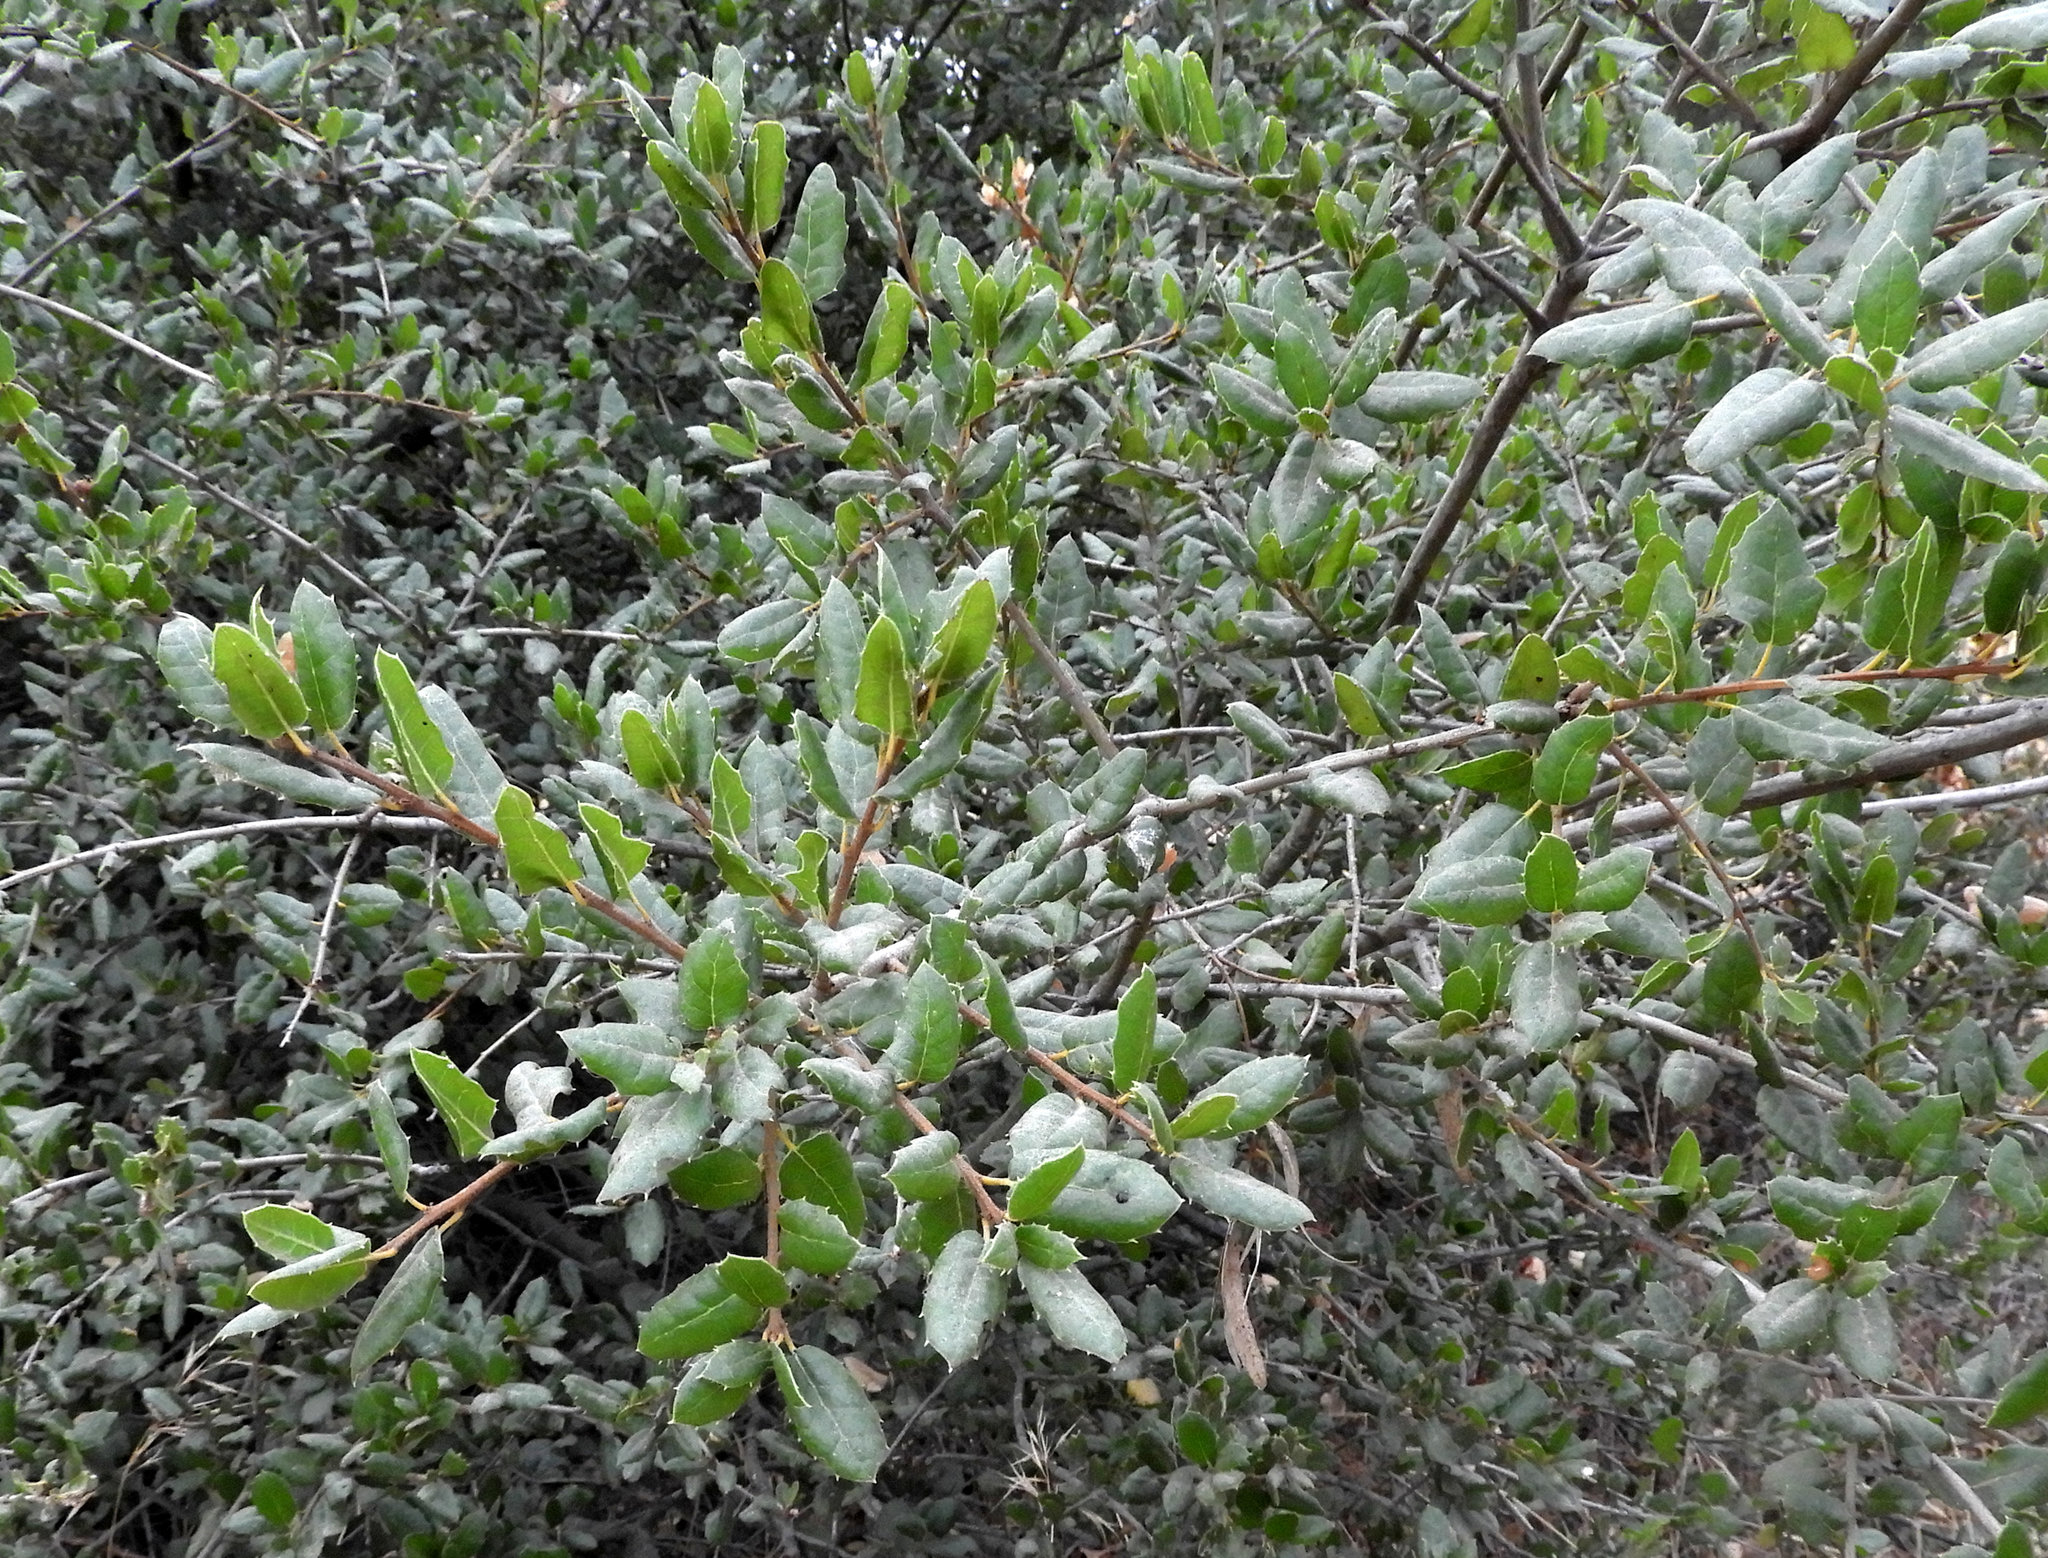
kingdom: Plantae
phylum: Tracheophyta
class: Magnoliopsida
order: Fagales
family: Fagaceae
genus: Quercus
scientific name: Quercus agrifolia
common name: California live oak
